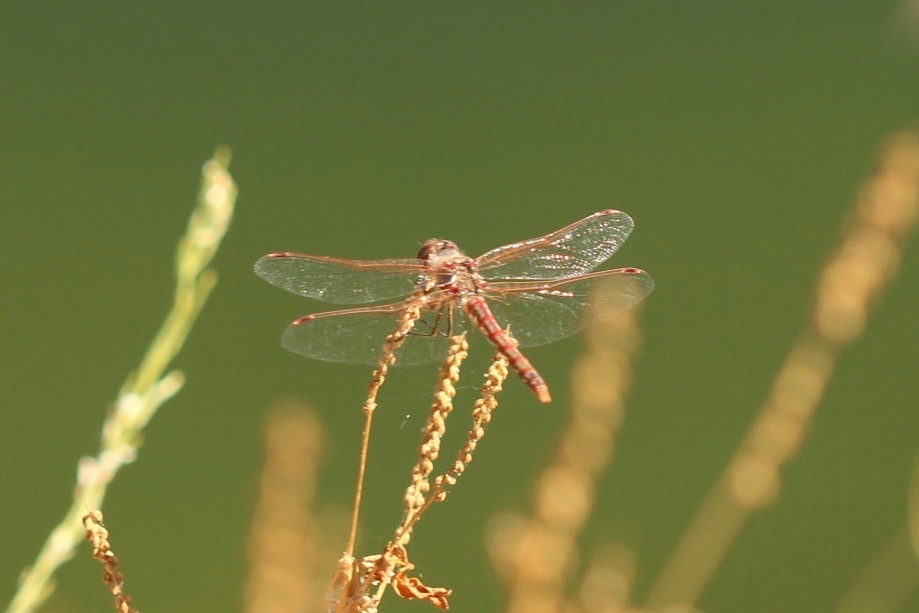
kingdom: Animalia
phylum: Arthropoda
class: Insecta
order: Odonata
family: Libellulidae
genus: Sympetrum
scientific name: Sympetrum corruptum
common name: Variegated meadowhawk
